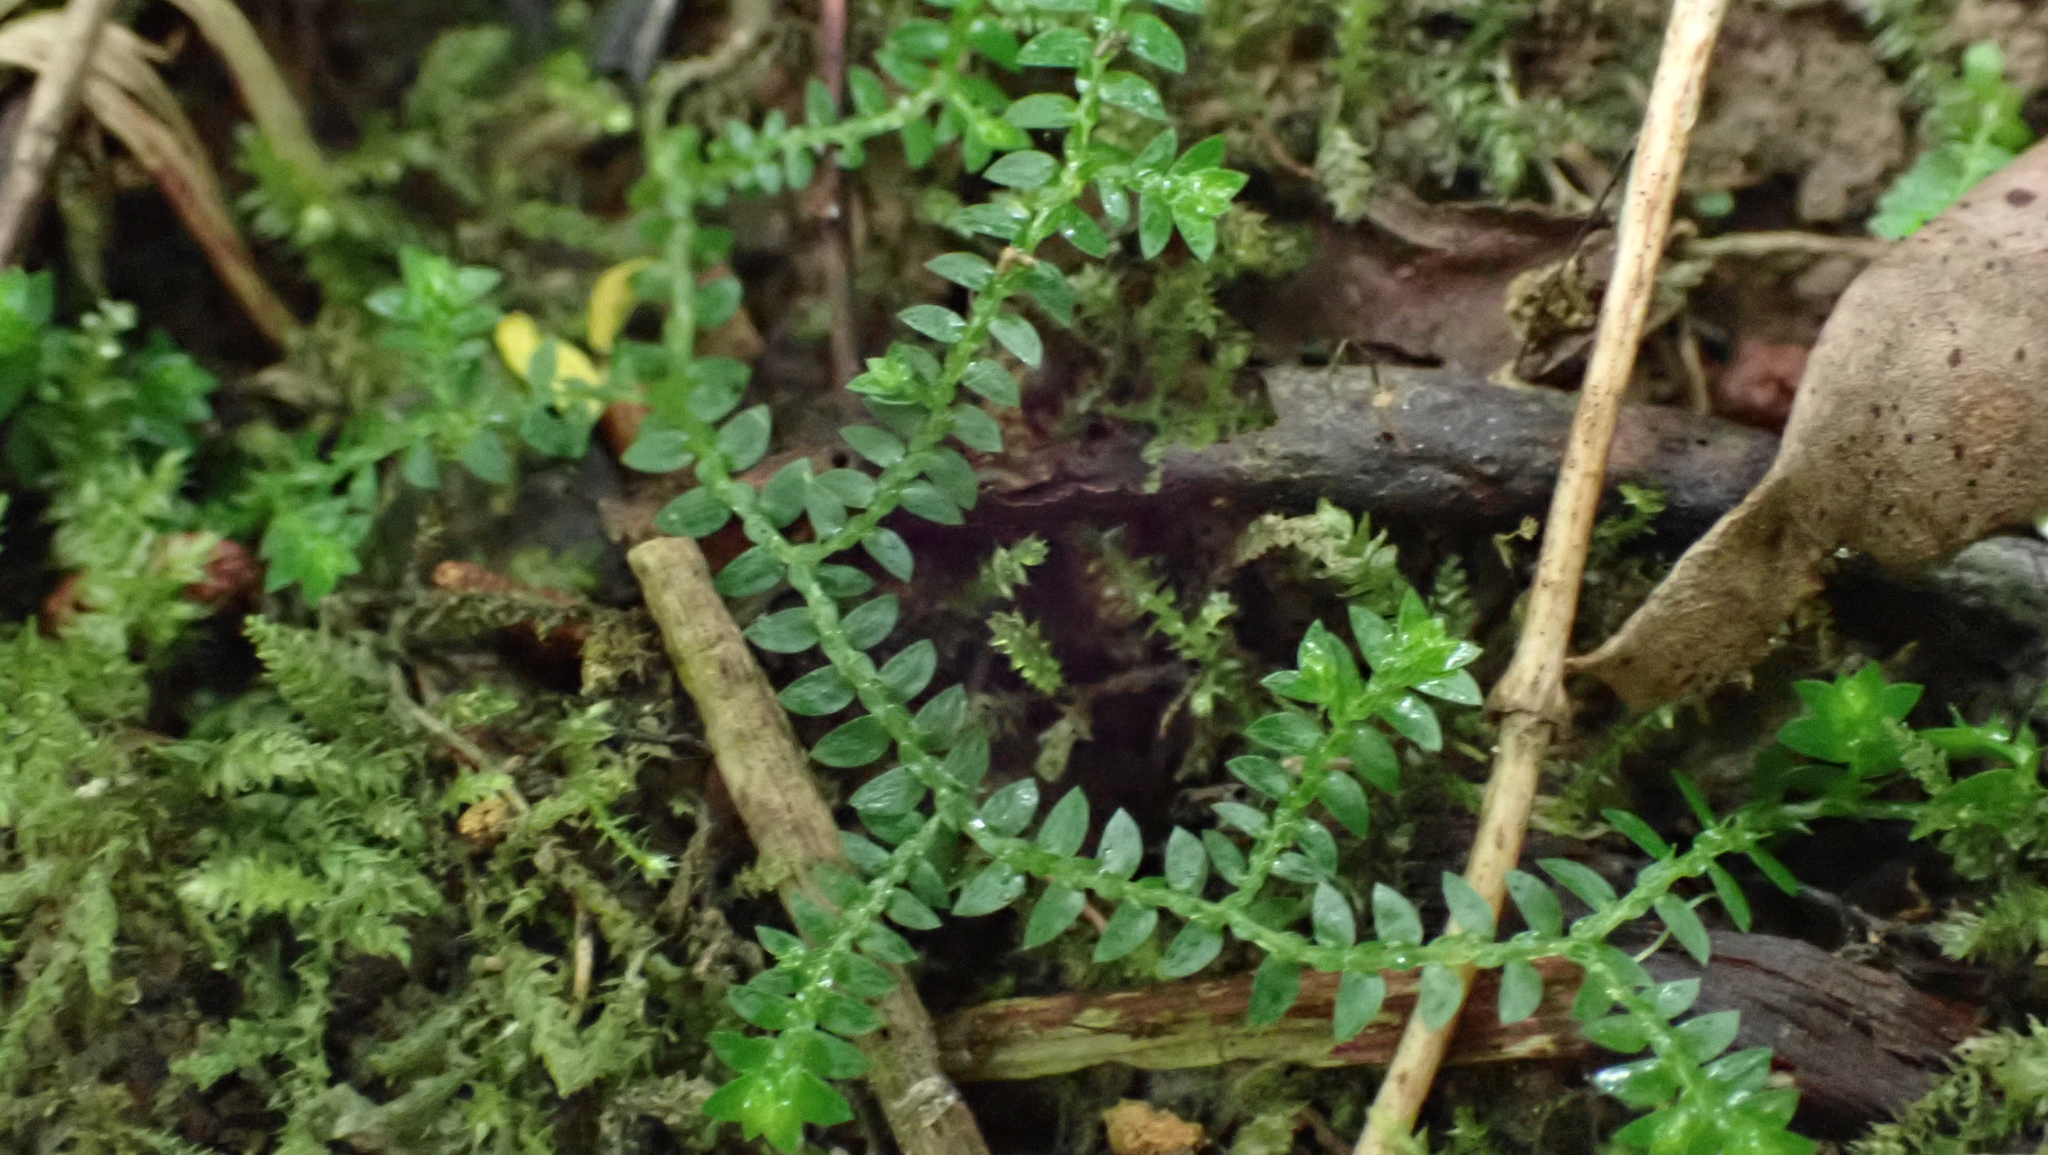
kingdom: Plantae
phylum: Tracheophyta
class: Lycopodiopsida
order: Selaginellales
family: Selaginellaceae
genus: Selaginella
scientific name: Selaginella apoda
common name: Creeping spikemoss
